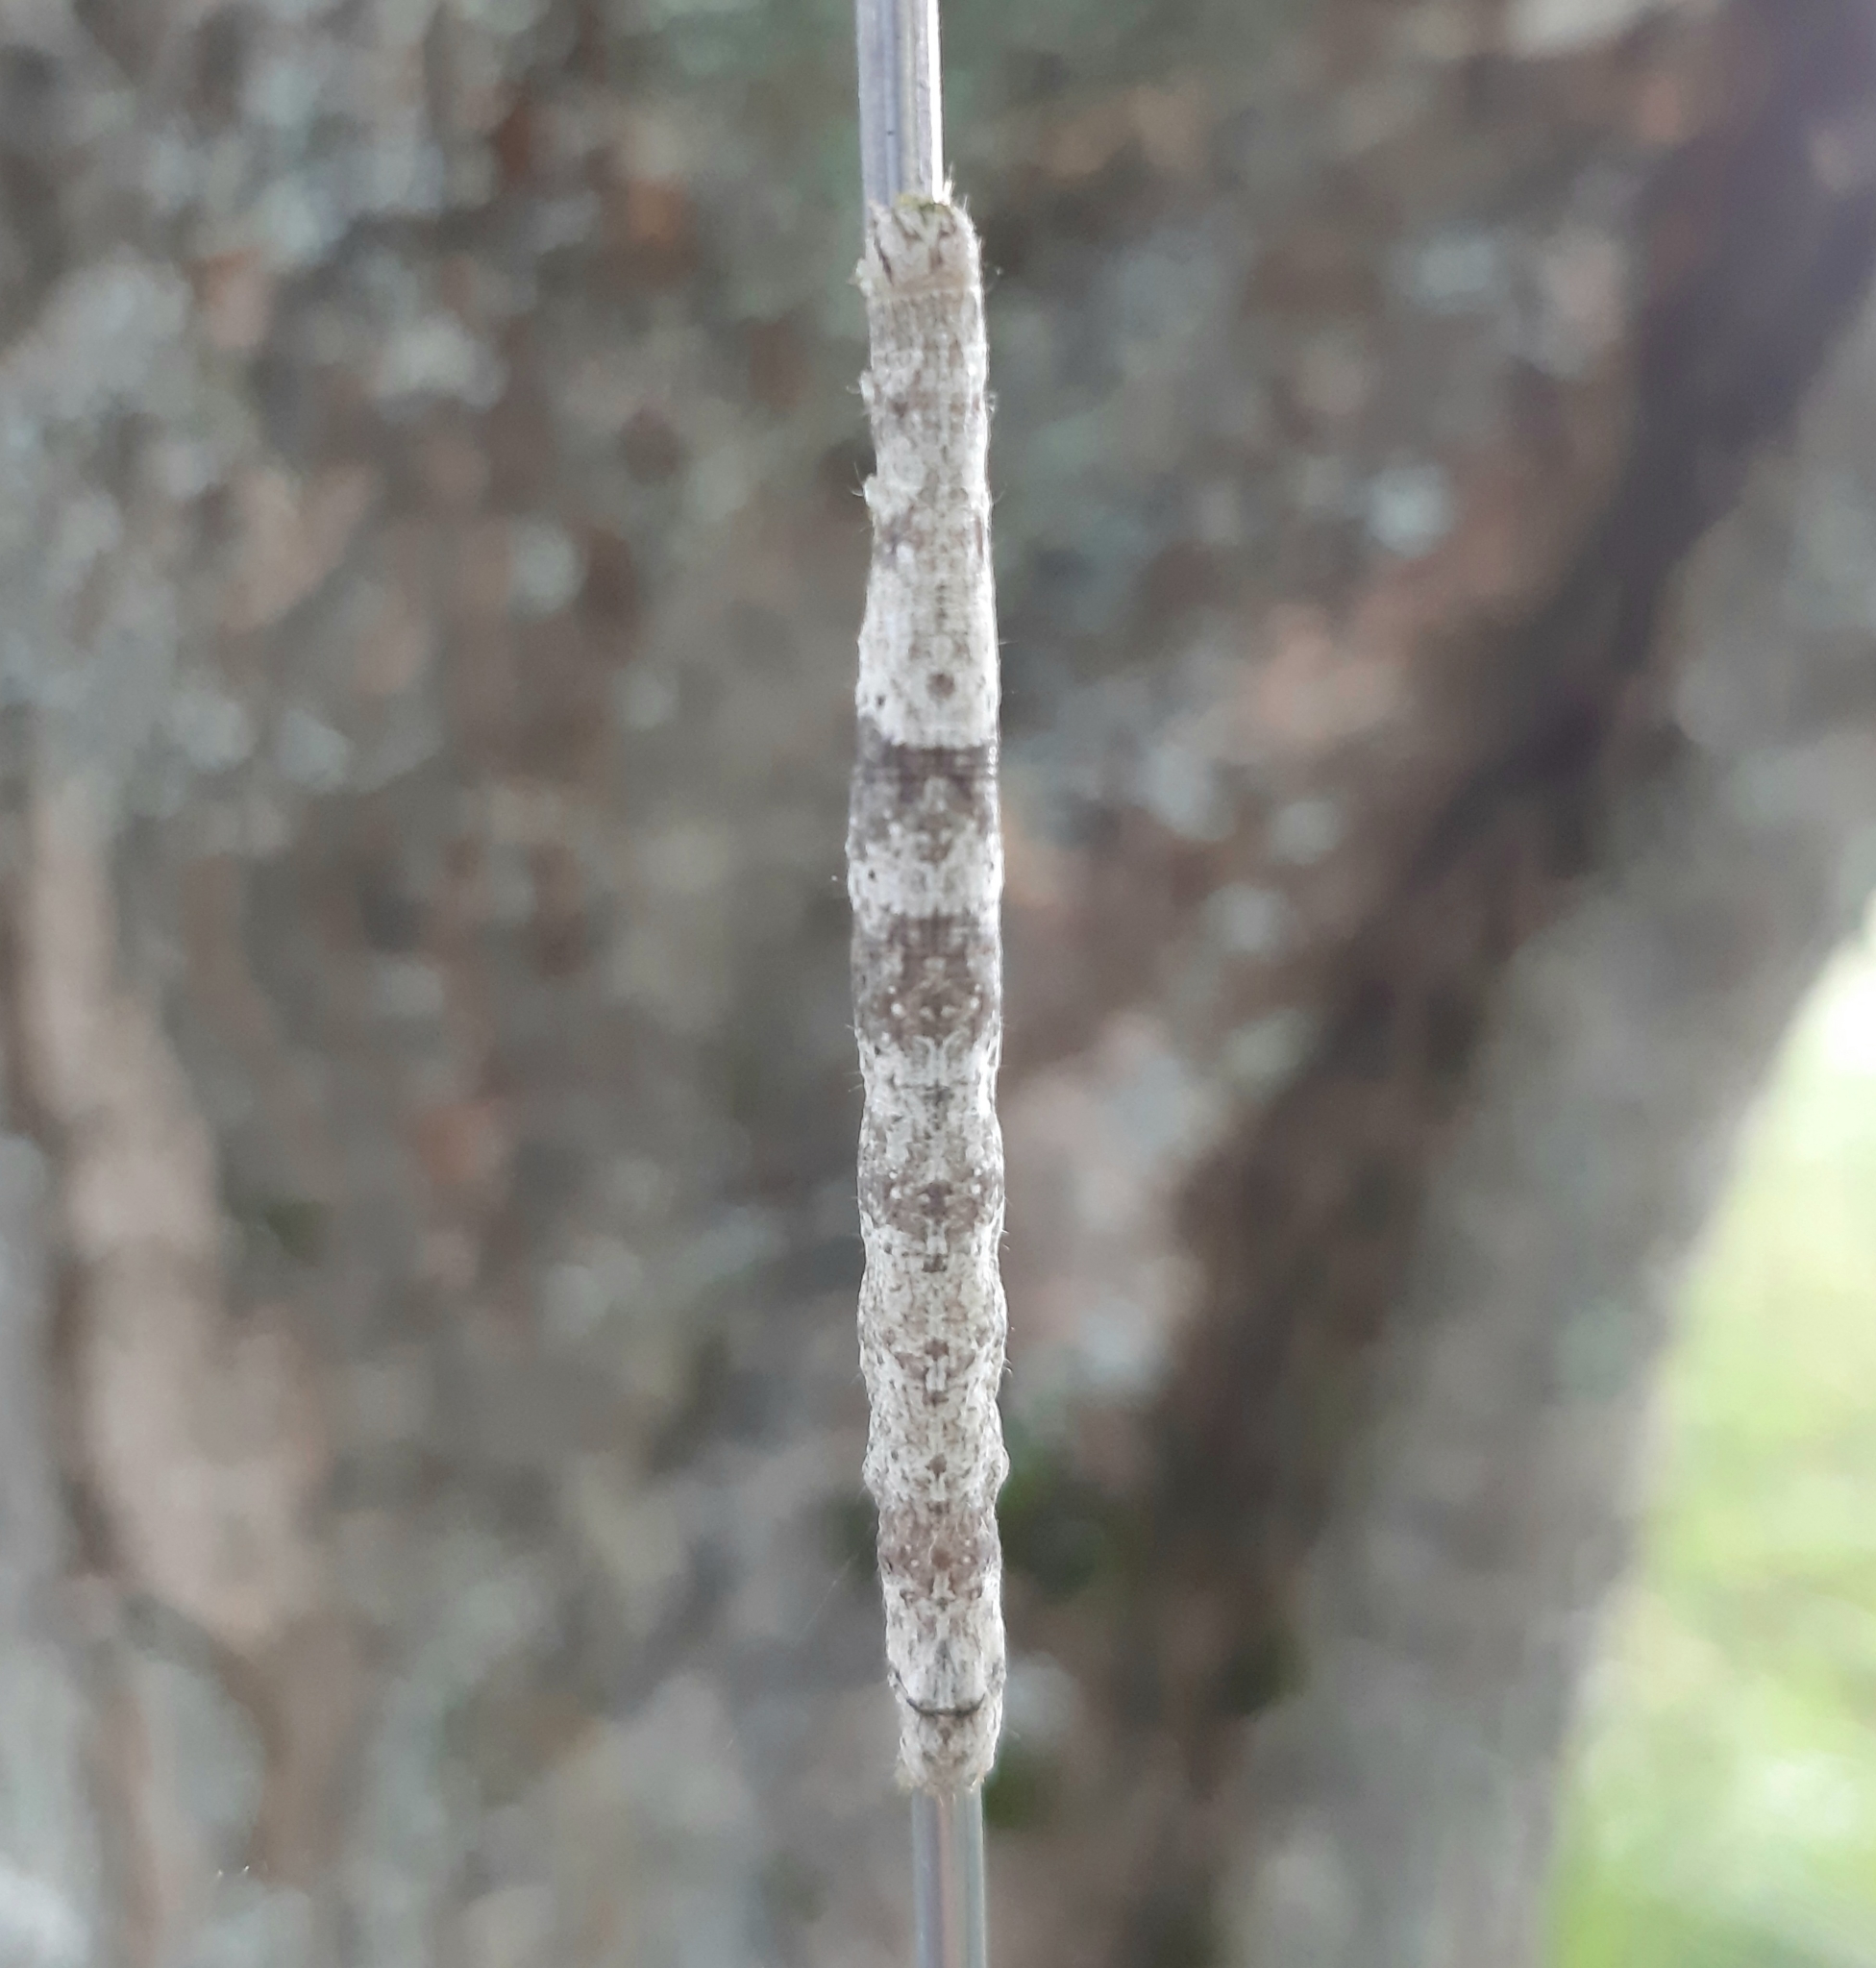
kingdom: Animalia
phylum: Arthropoda
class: Insecta
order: Lepidoptera
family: Erebidae
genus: Parallelia
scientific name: Parallelia bistriaris
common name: Maple looper moth
